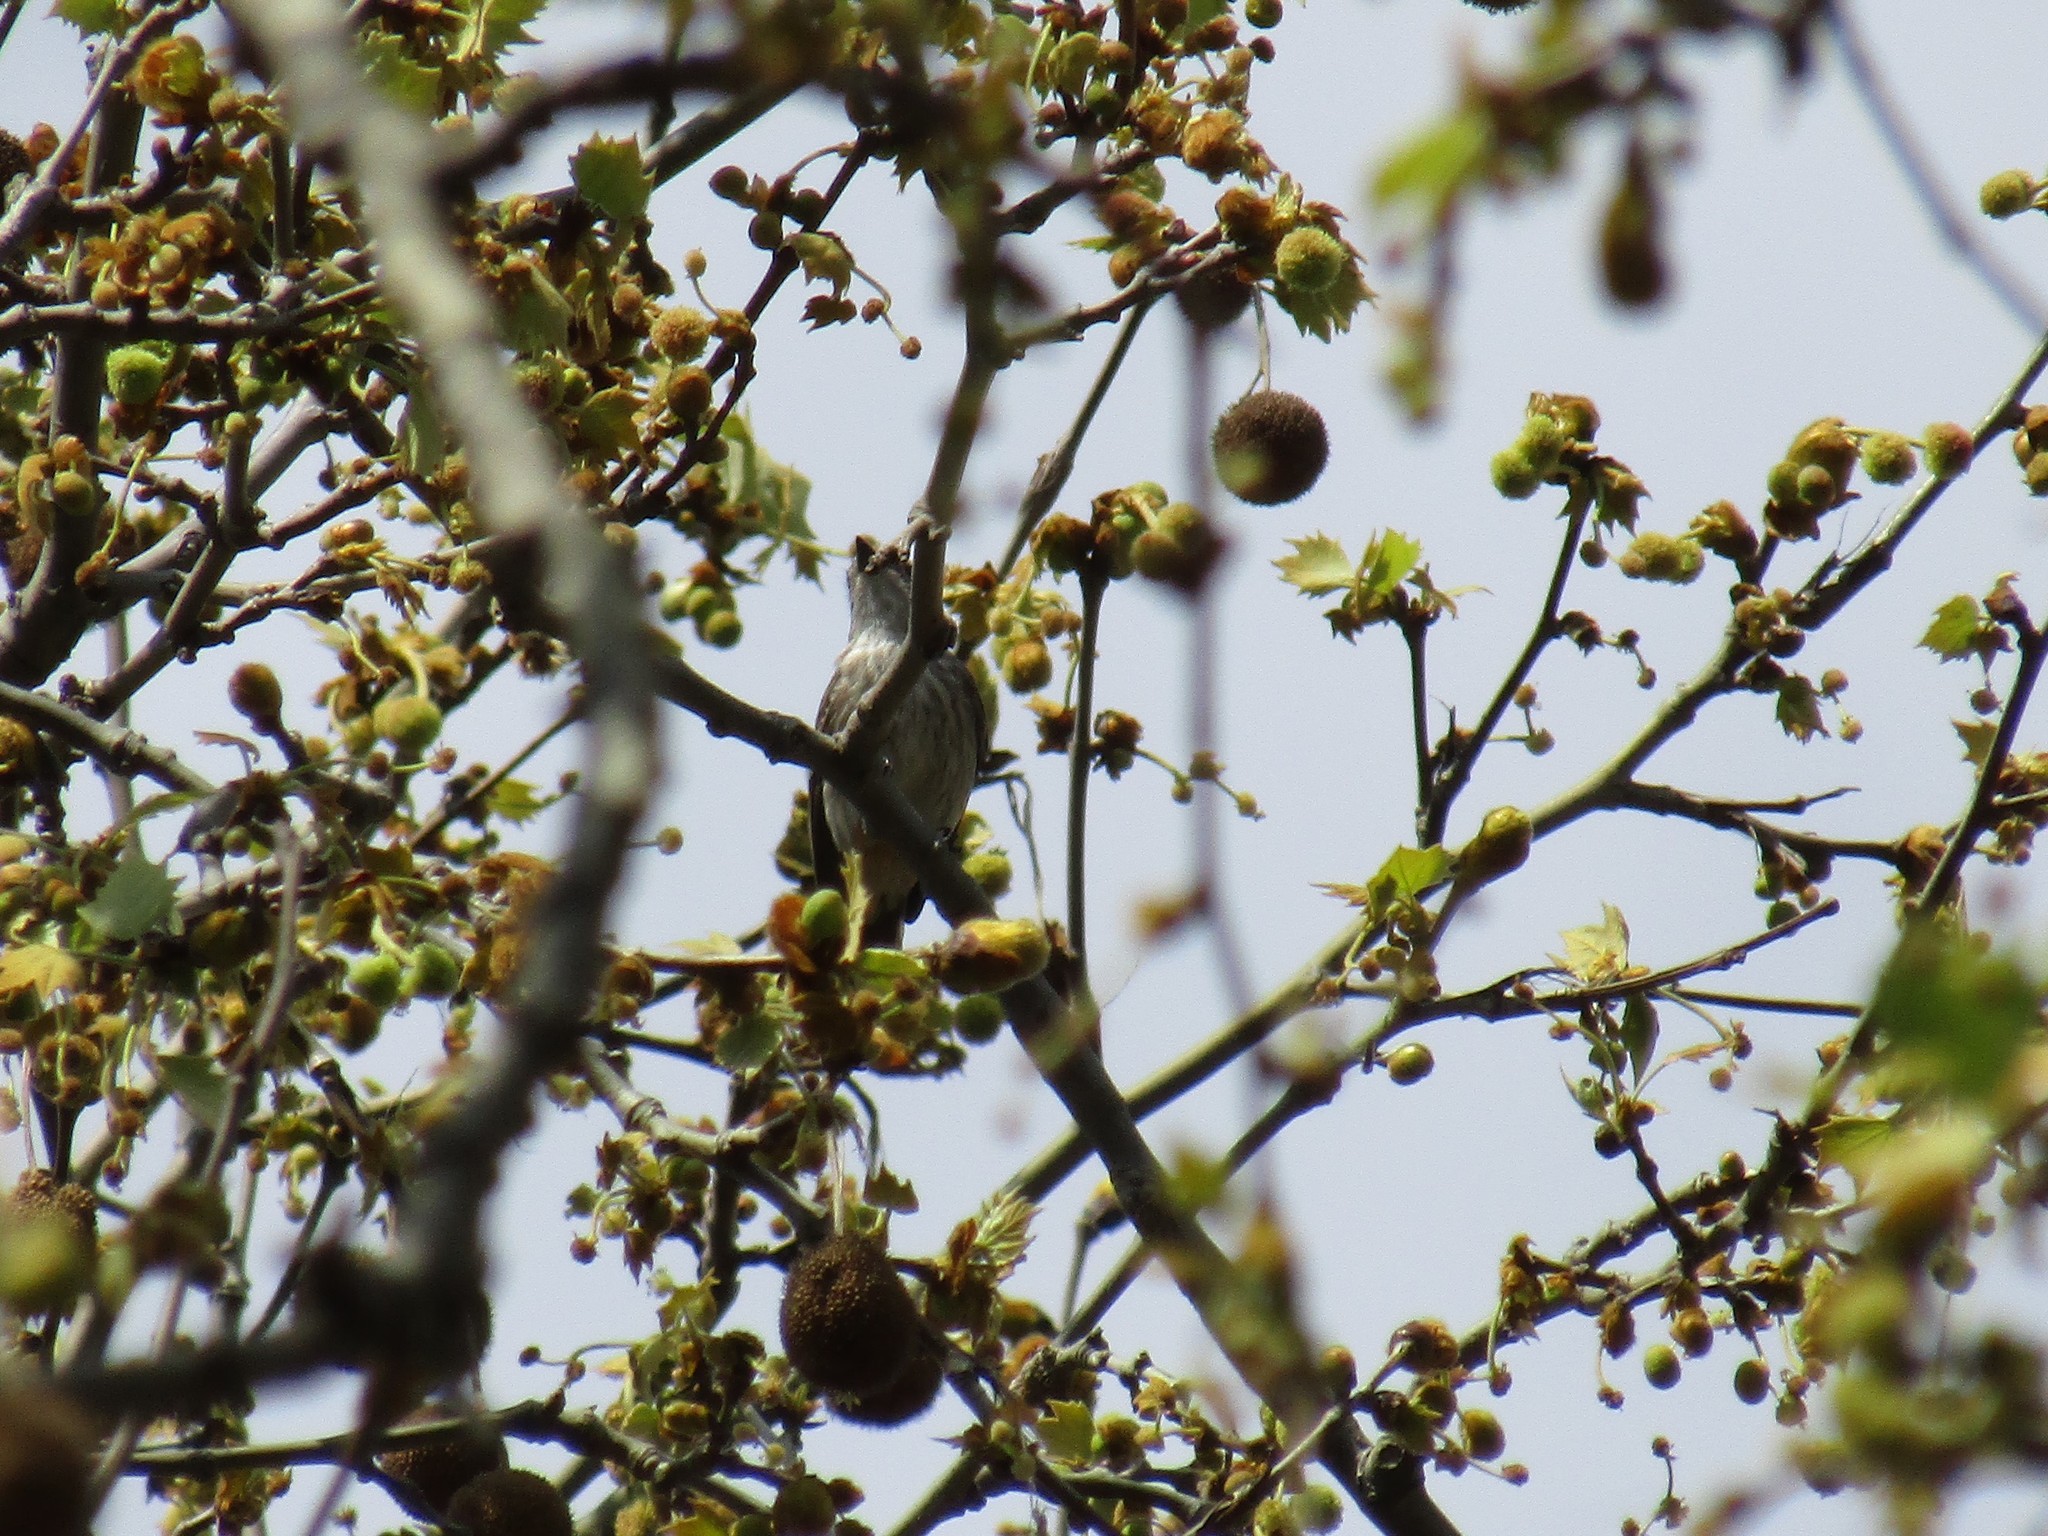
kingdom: Animalia
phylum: Chordata
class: Aves
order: Passeriformes
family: Tyrannidae
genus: Pyrocephalus
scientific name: Pyrocephalus rubinus
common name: Vermilion flycatcher
